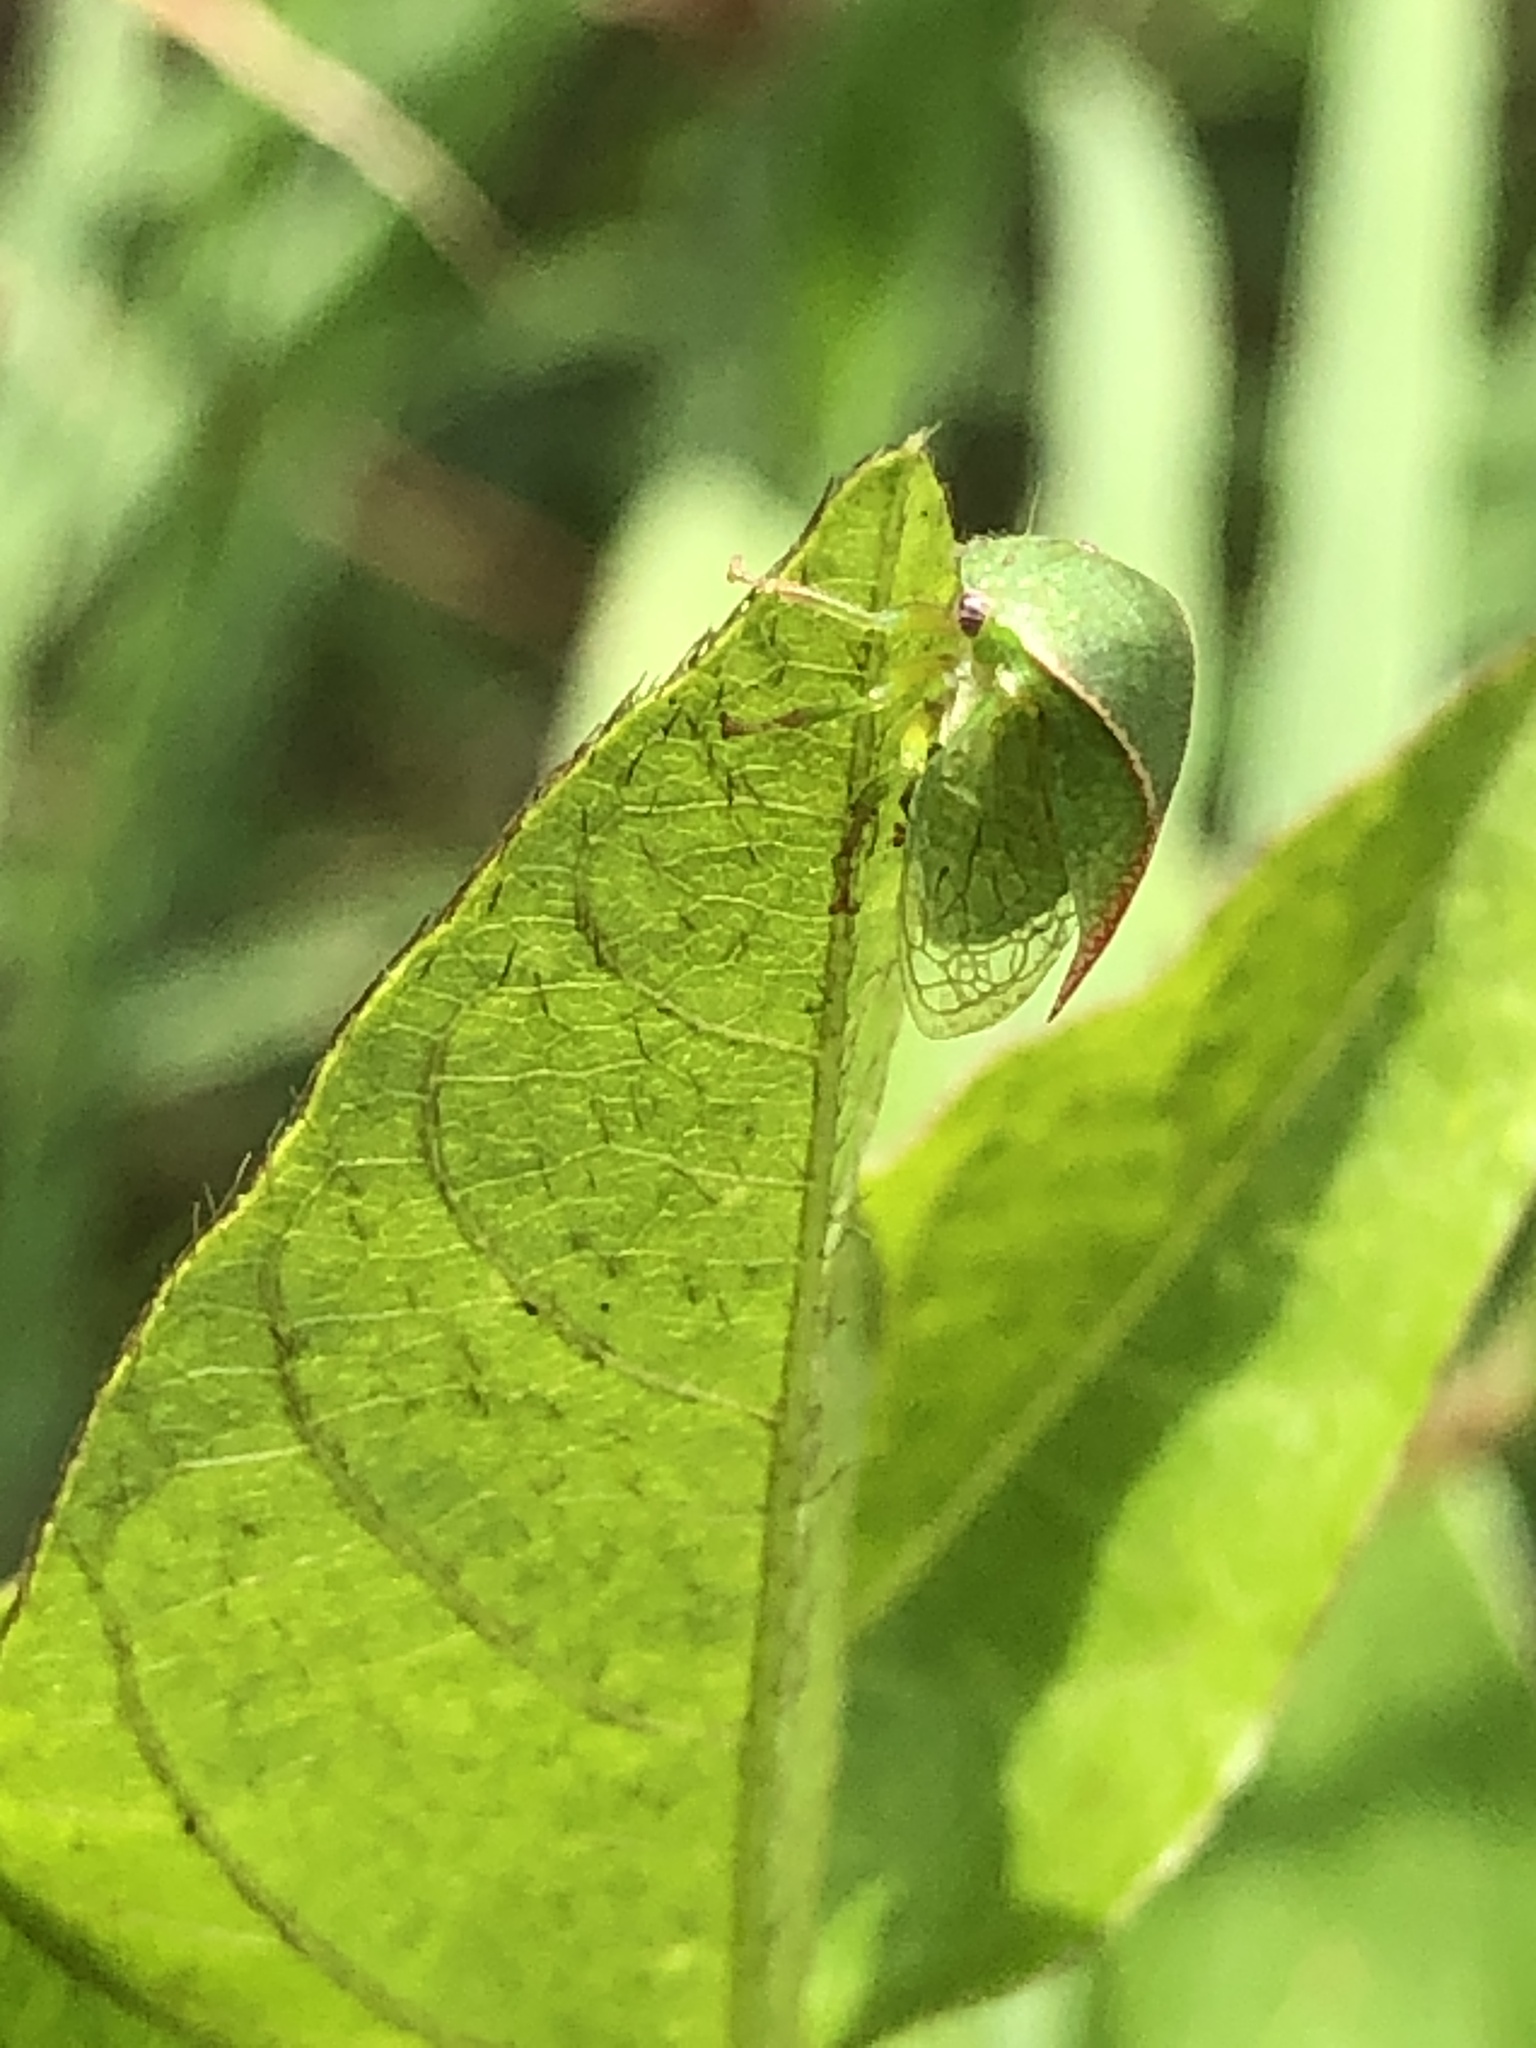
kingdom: Animalia
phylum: Arthropoda
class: Insecta
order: Hemiptera
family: Membracidae
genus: Spissistilus
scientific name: Spissistilus festina
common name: Membracid bug
